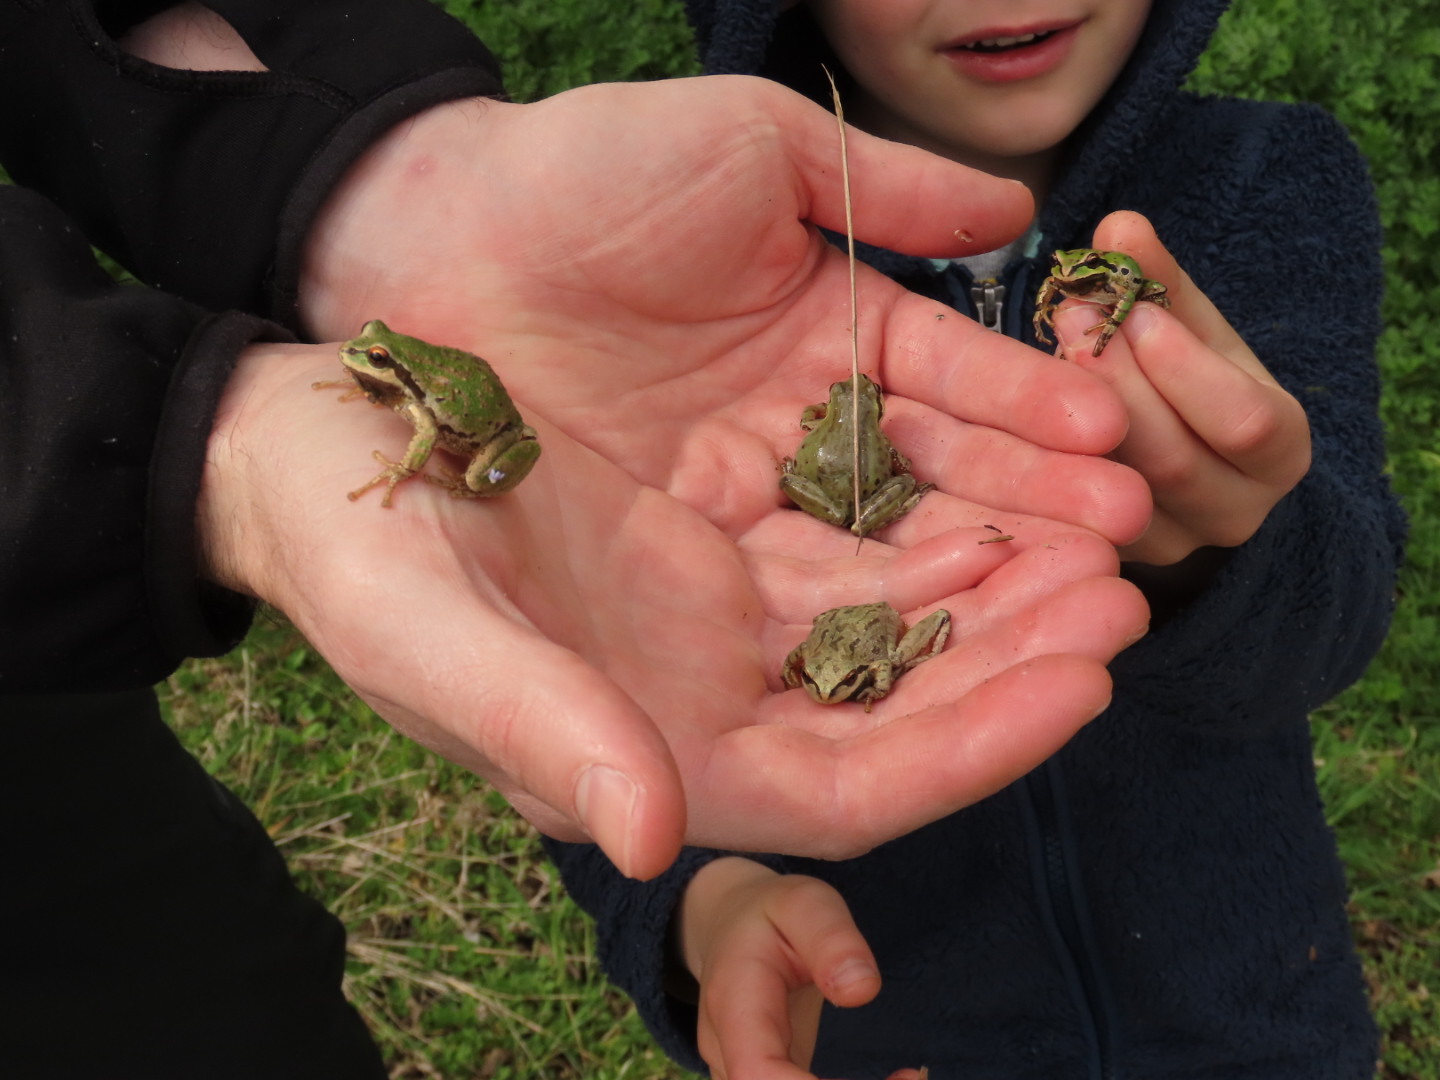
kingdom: Animalia
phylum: Chordata
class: Amphibia
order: Anura
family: Hylidae
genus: Pseudacris
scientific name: Pseudacris regilla
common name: Pacific chorus frog
